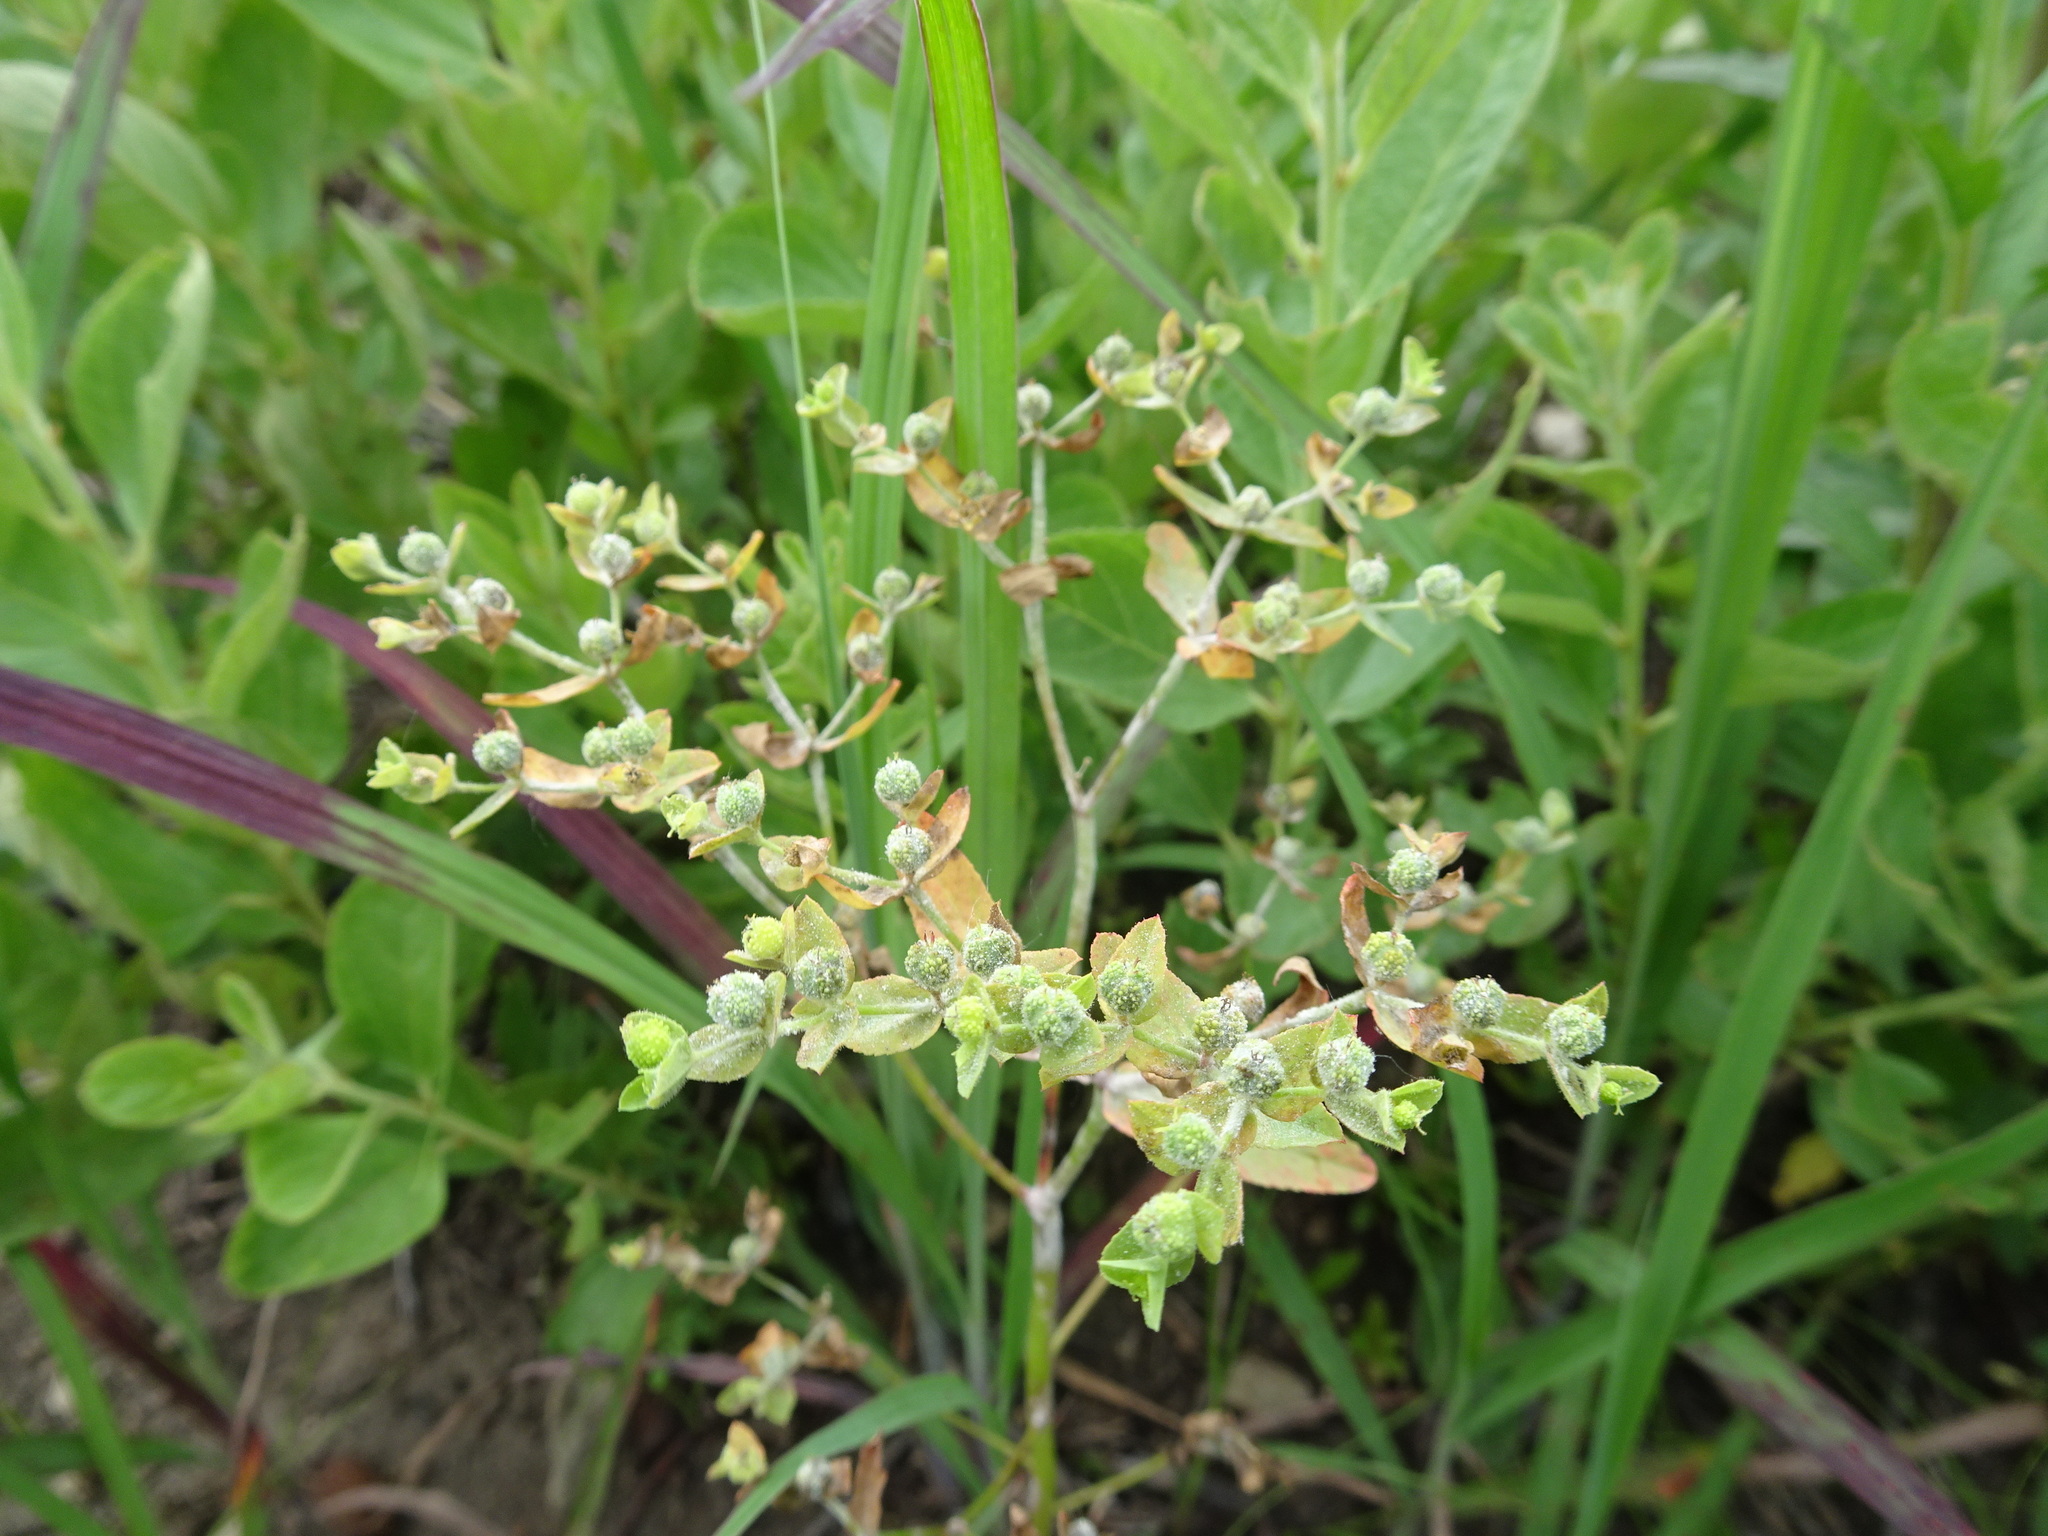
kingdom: Plantae
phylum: Tracheophyta
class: Magnoliopsida
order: Malpighiales
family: Euphorbiaceae
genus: Euphorbia
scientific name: Euphorbia spathulata
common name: Blunt spurge
